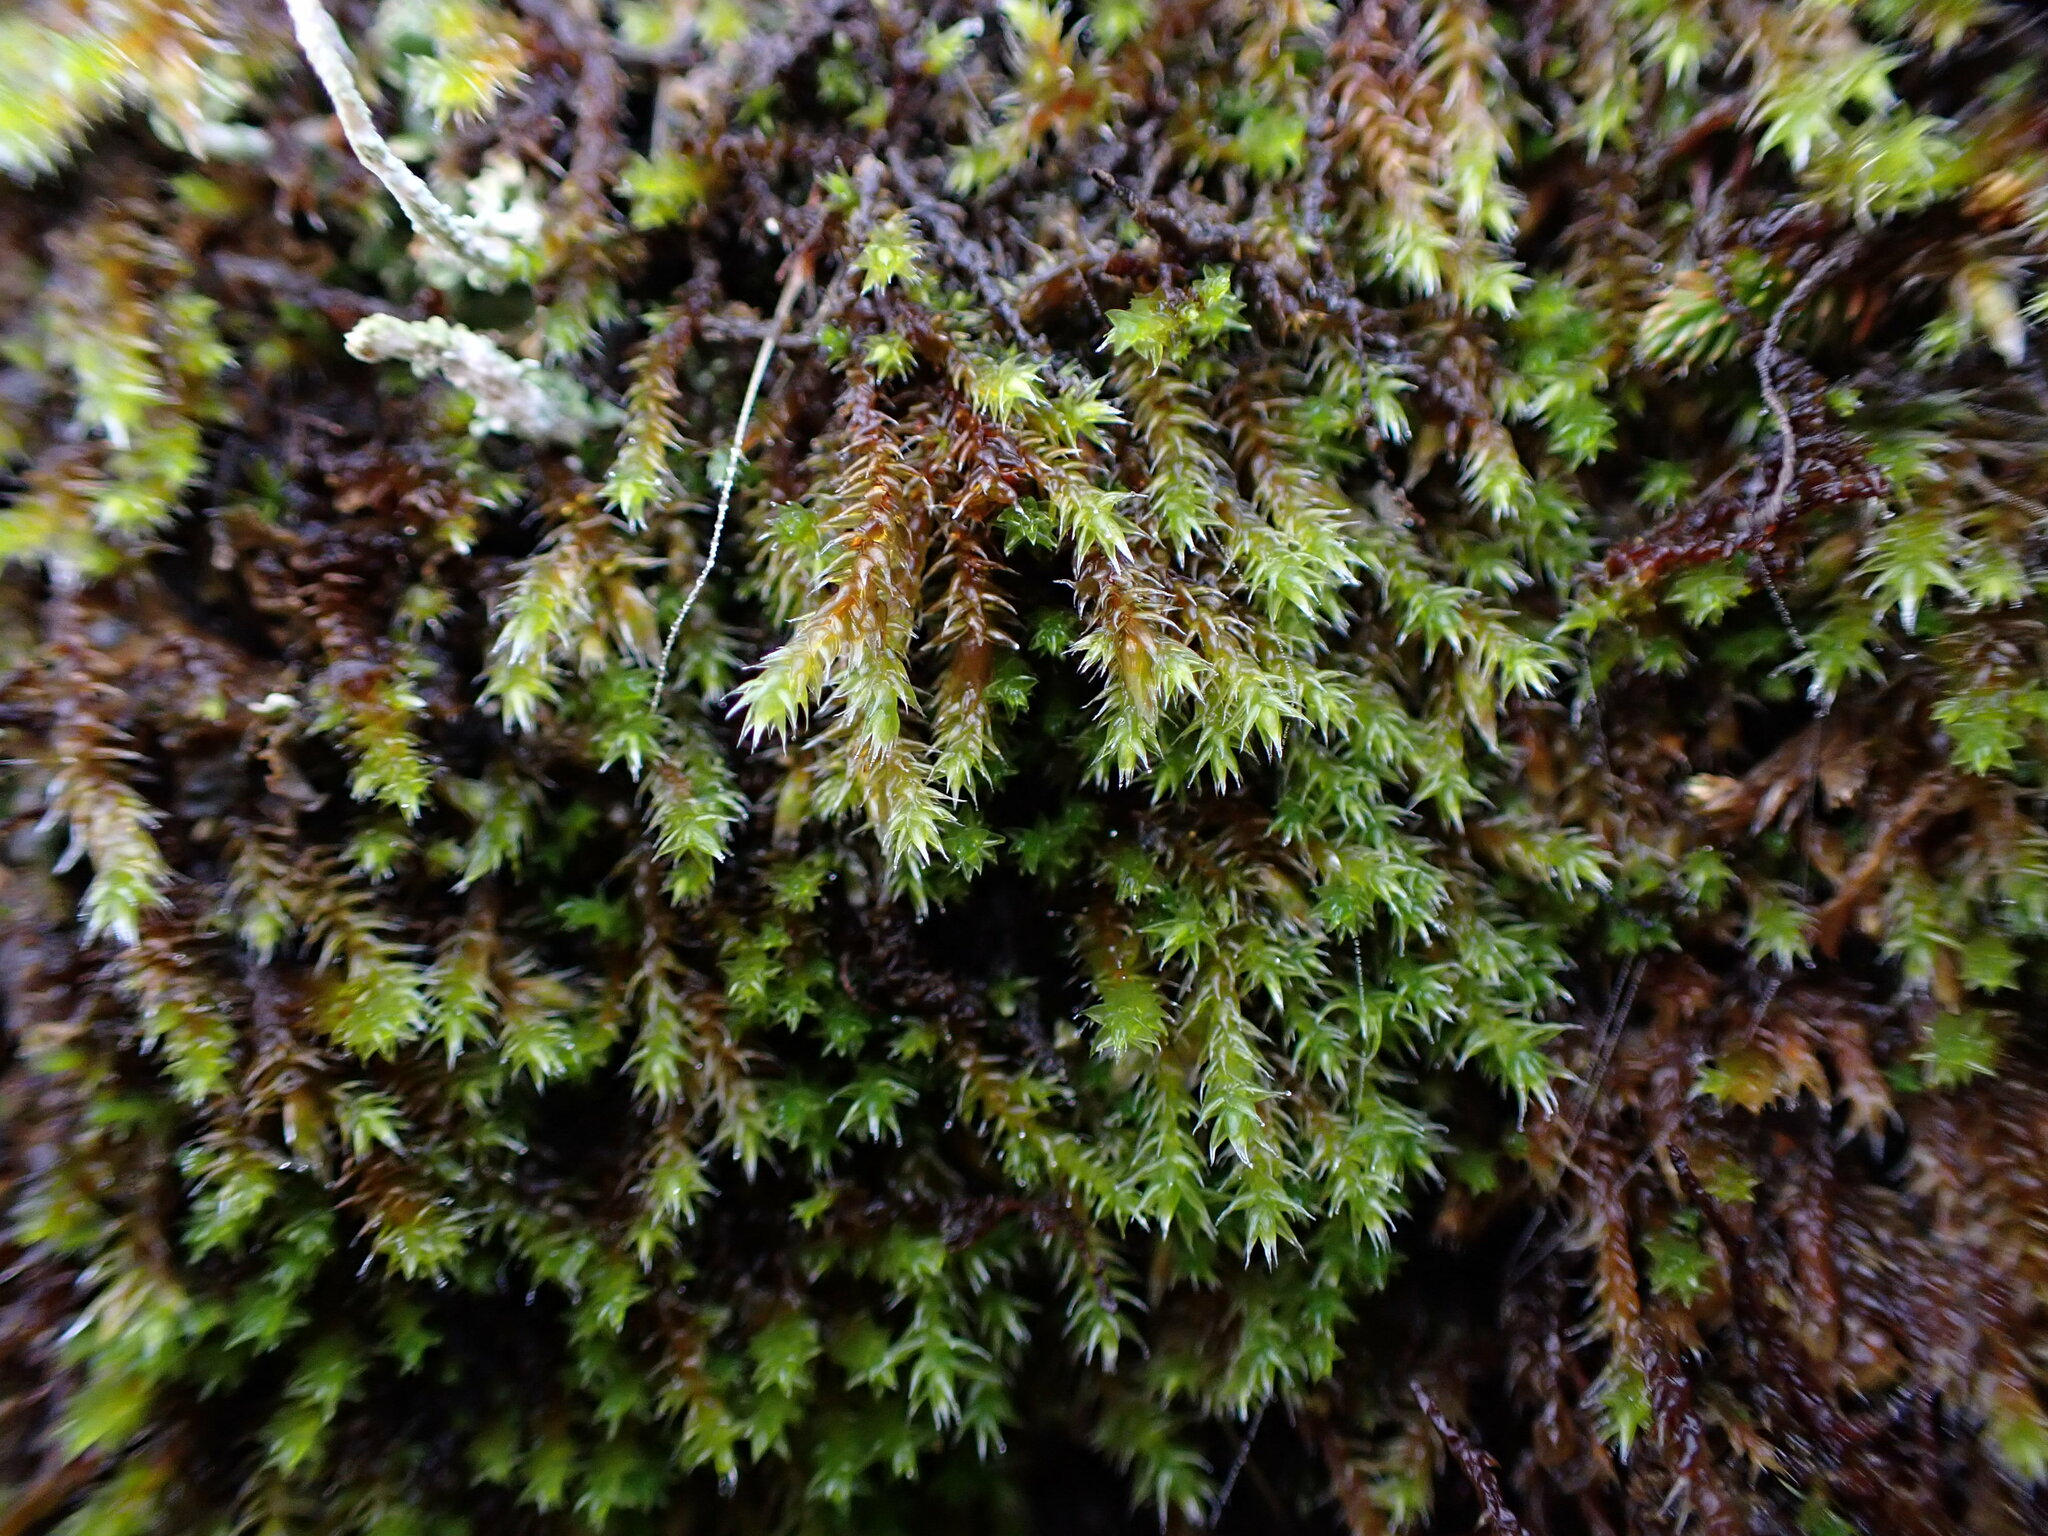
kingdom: Plantae
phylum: Bryophyta
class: Bryopsida
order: Hedwigiales
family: Hedwigiaceae
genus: Hedwigia
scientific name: Hedwigia stellata
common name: Starry hoar-moss
